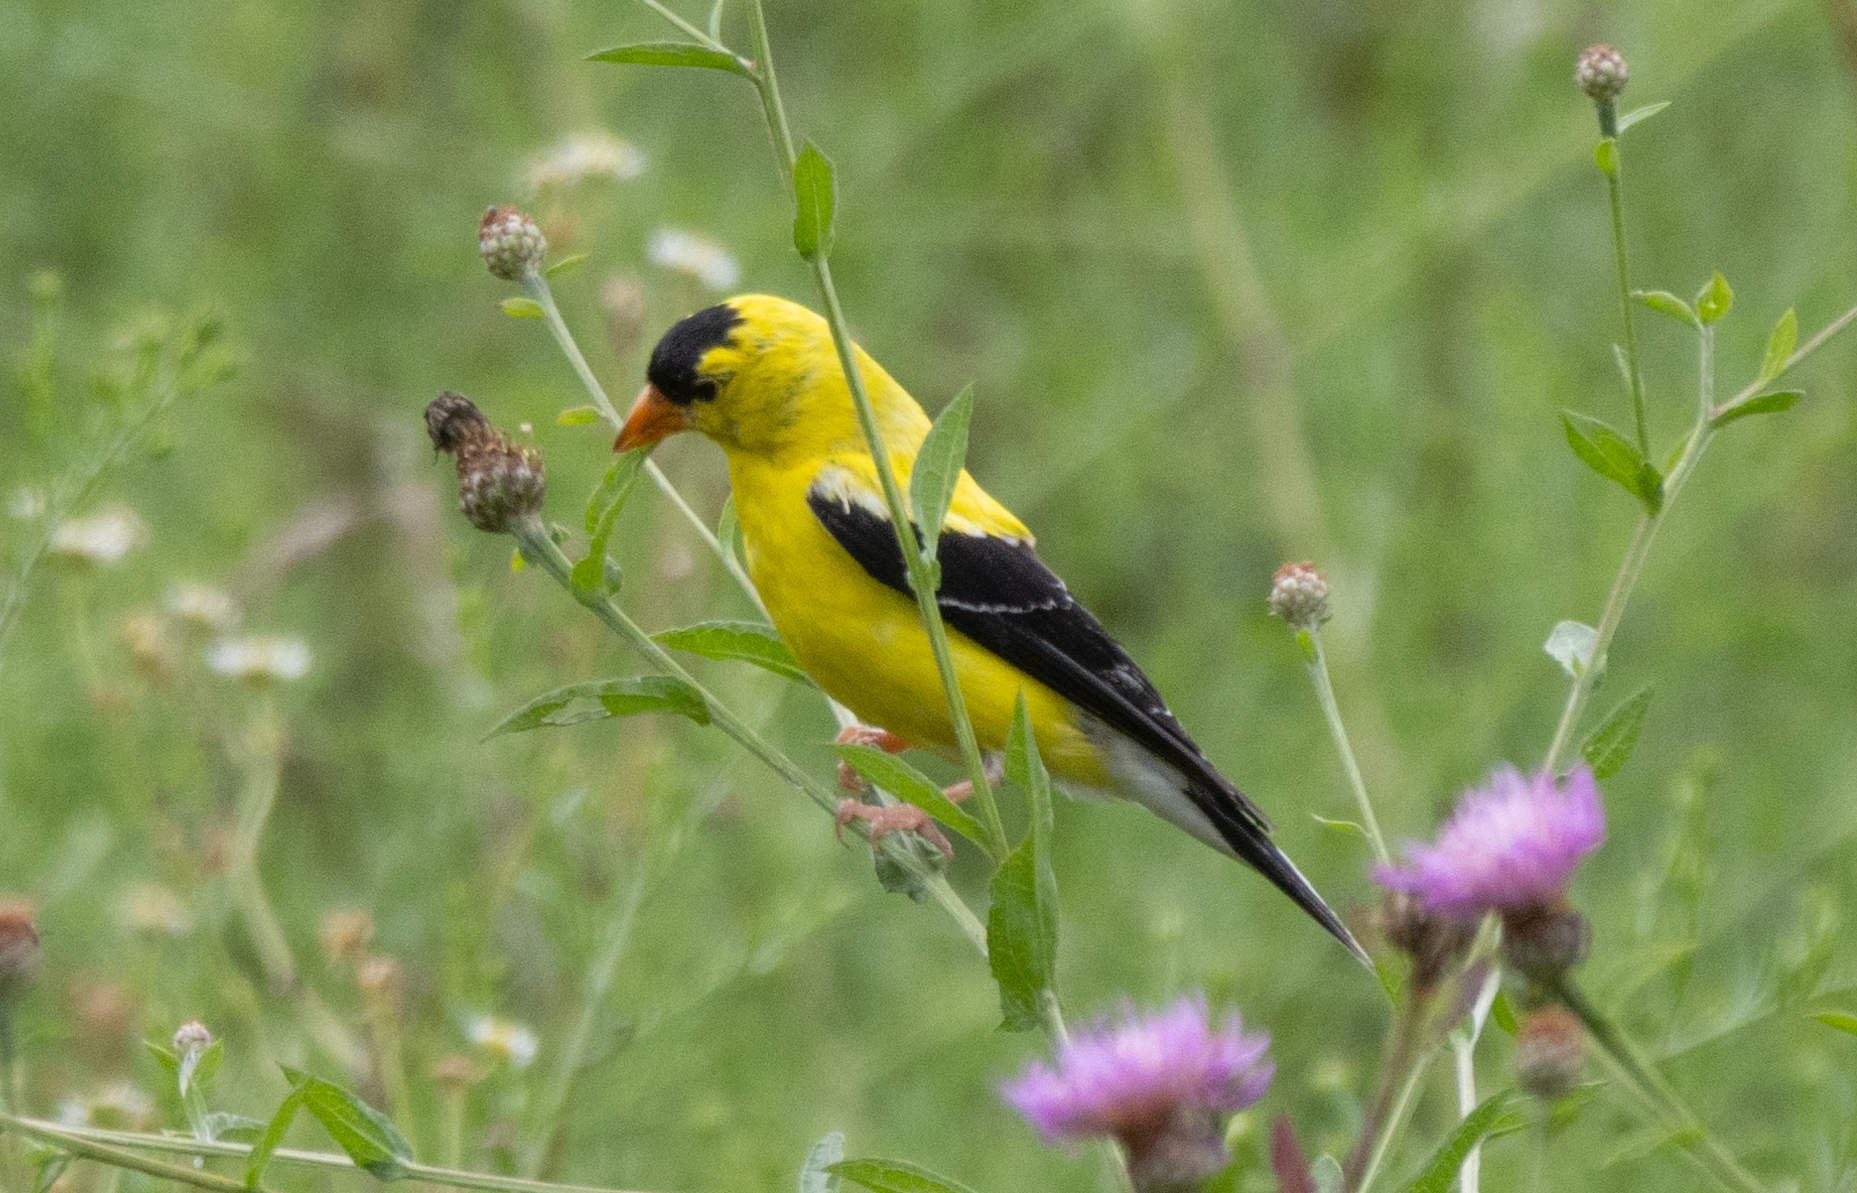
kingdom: Animalia
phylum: Chordata
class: Aves
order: Passeriformes
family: Fringillidae
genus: Spinus
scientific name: Spinus tristis
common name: American goldfinch
